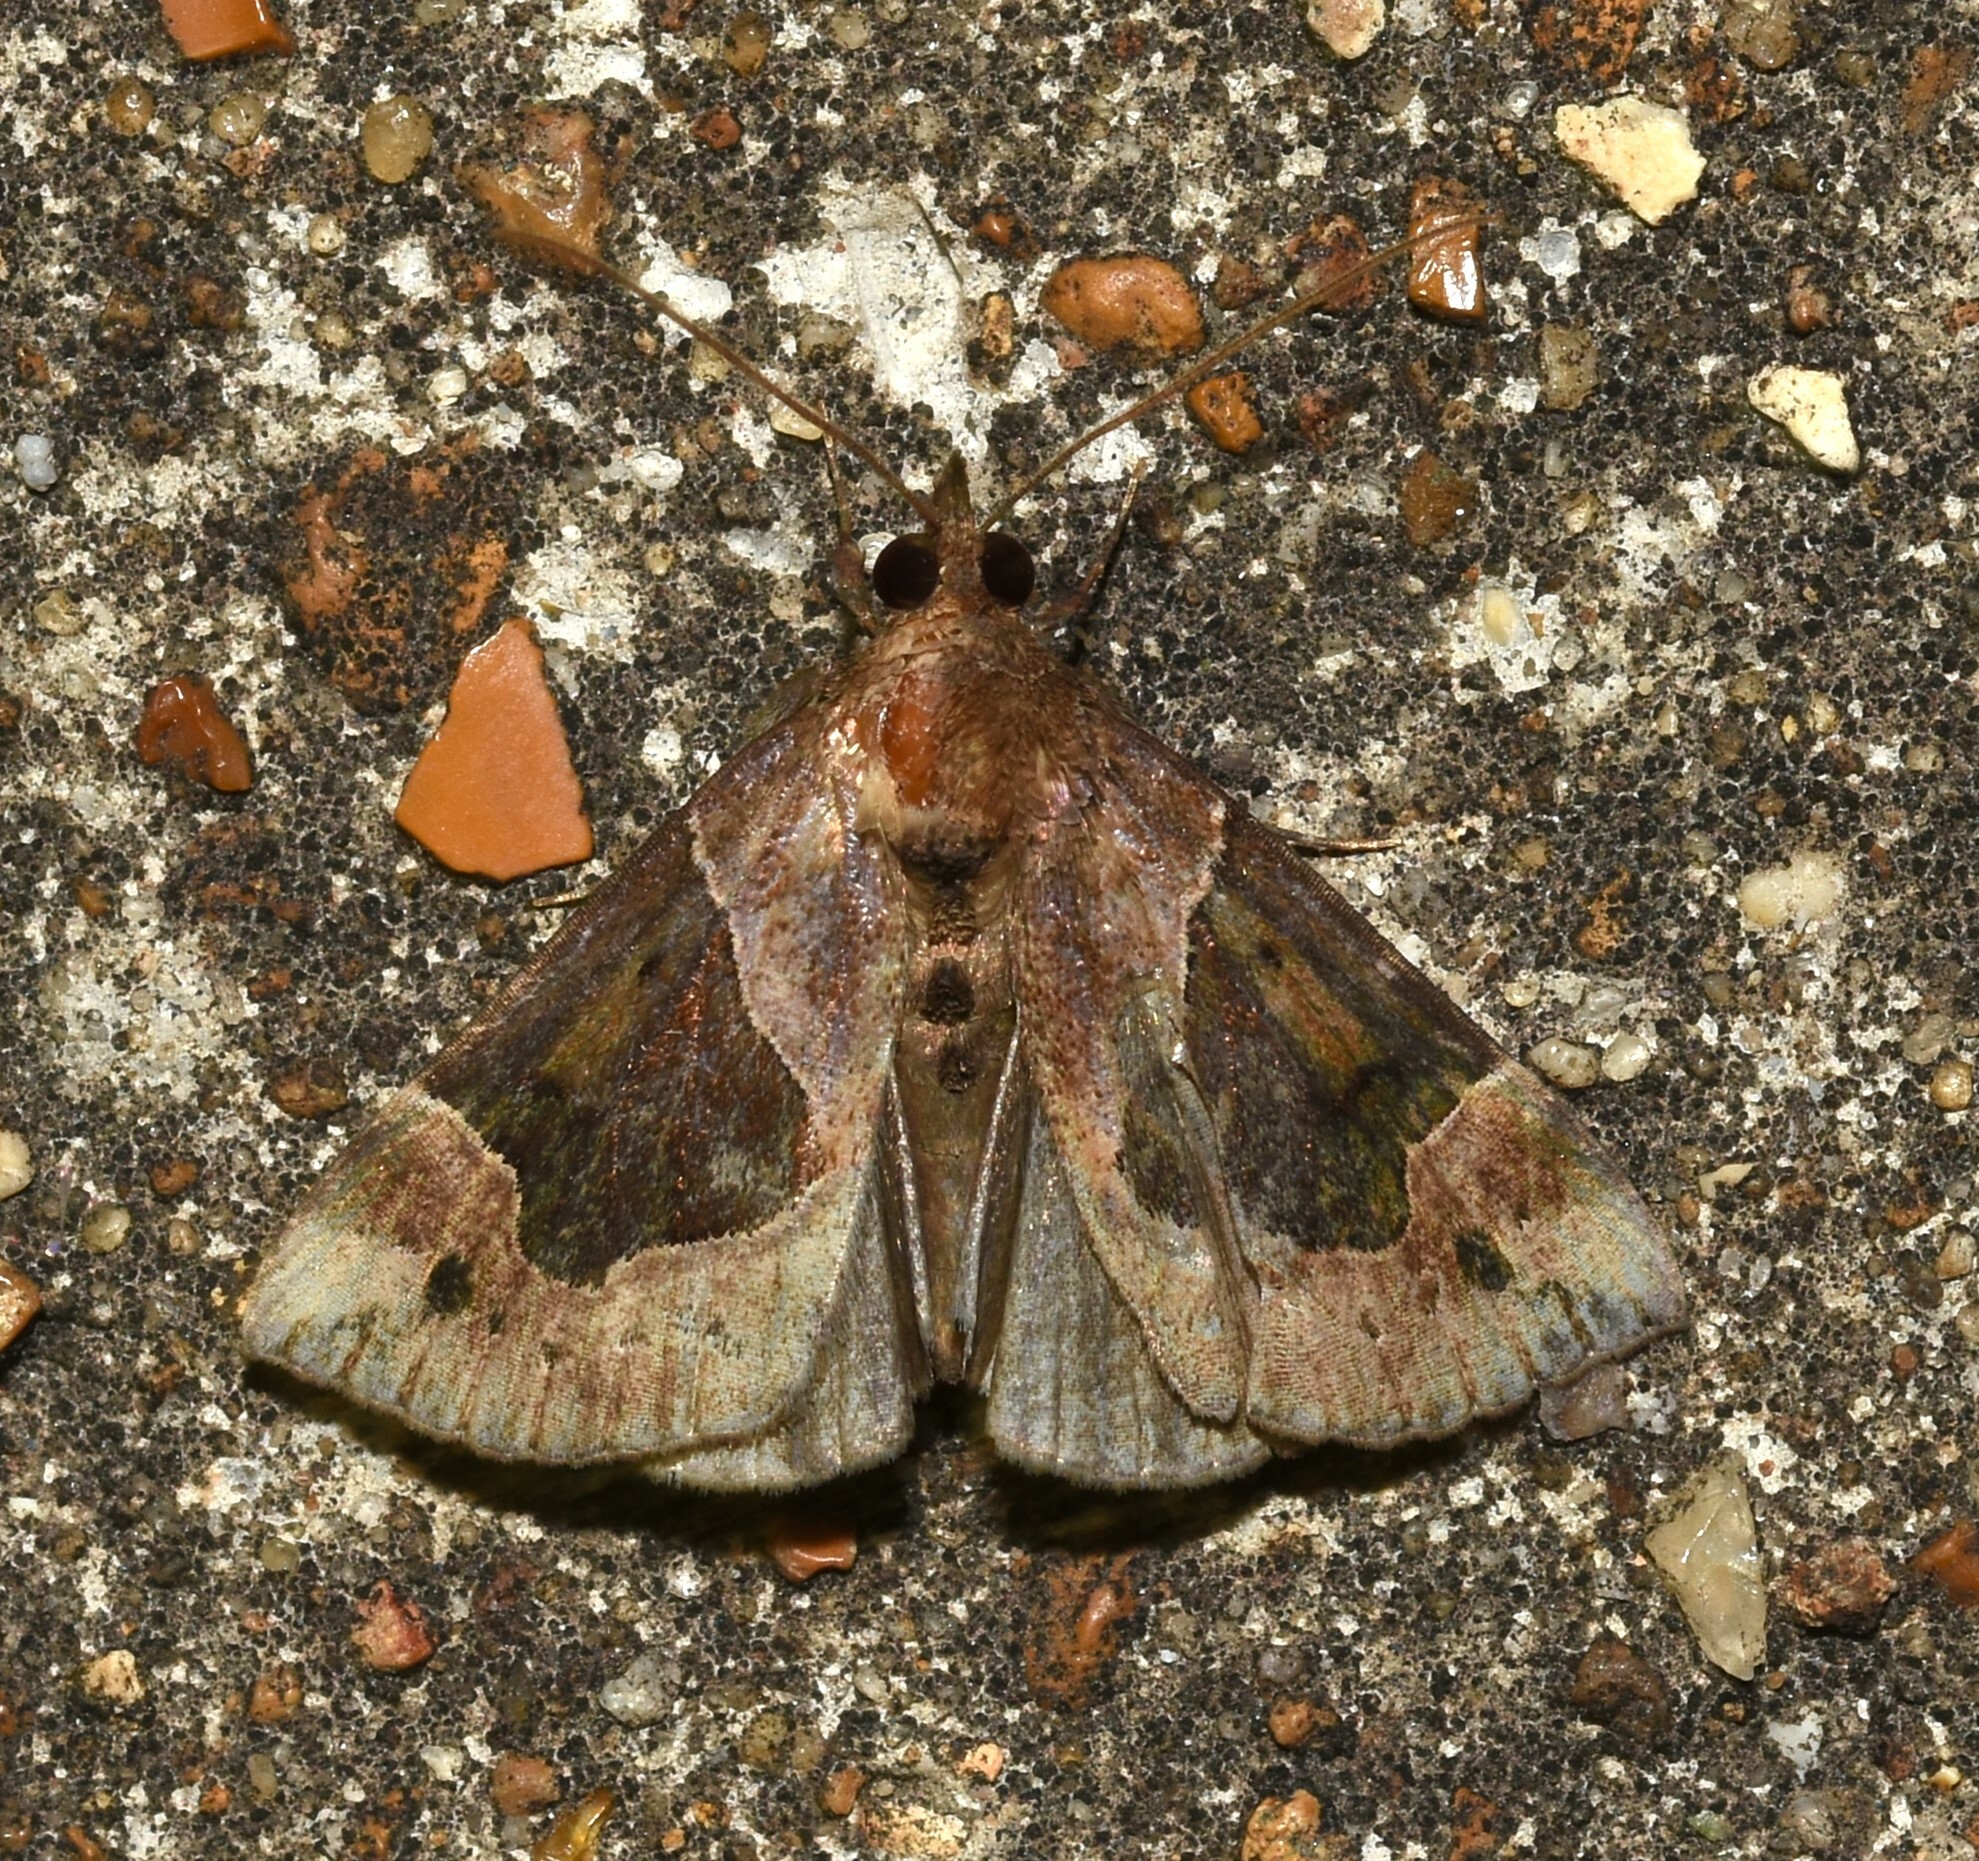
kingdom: Animalia
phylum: Arthropoda
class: Insecta
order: Lepidoptera
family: Erebidae
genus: Hypena
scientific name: Hypena manalis
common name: Flowing-line bomolocha moth
